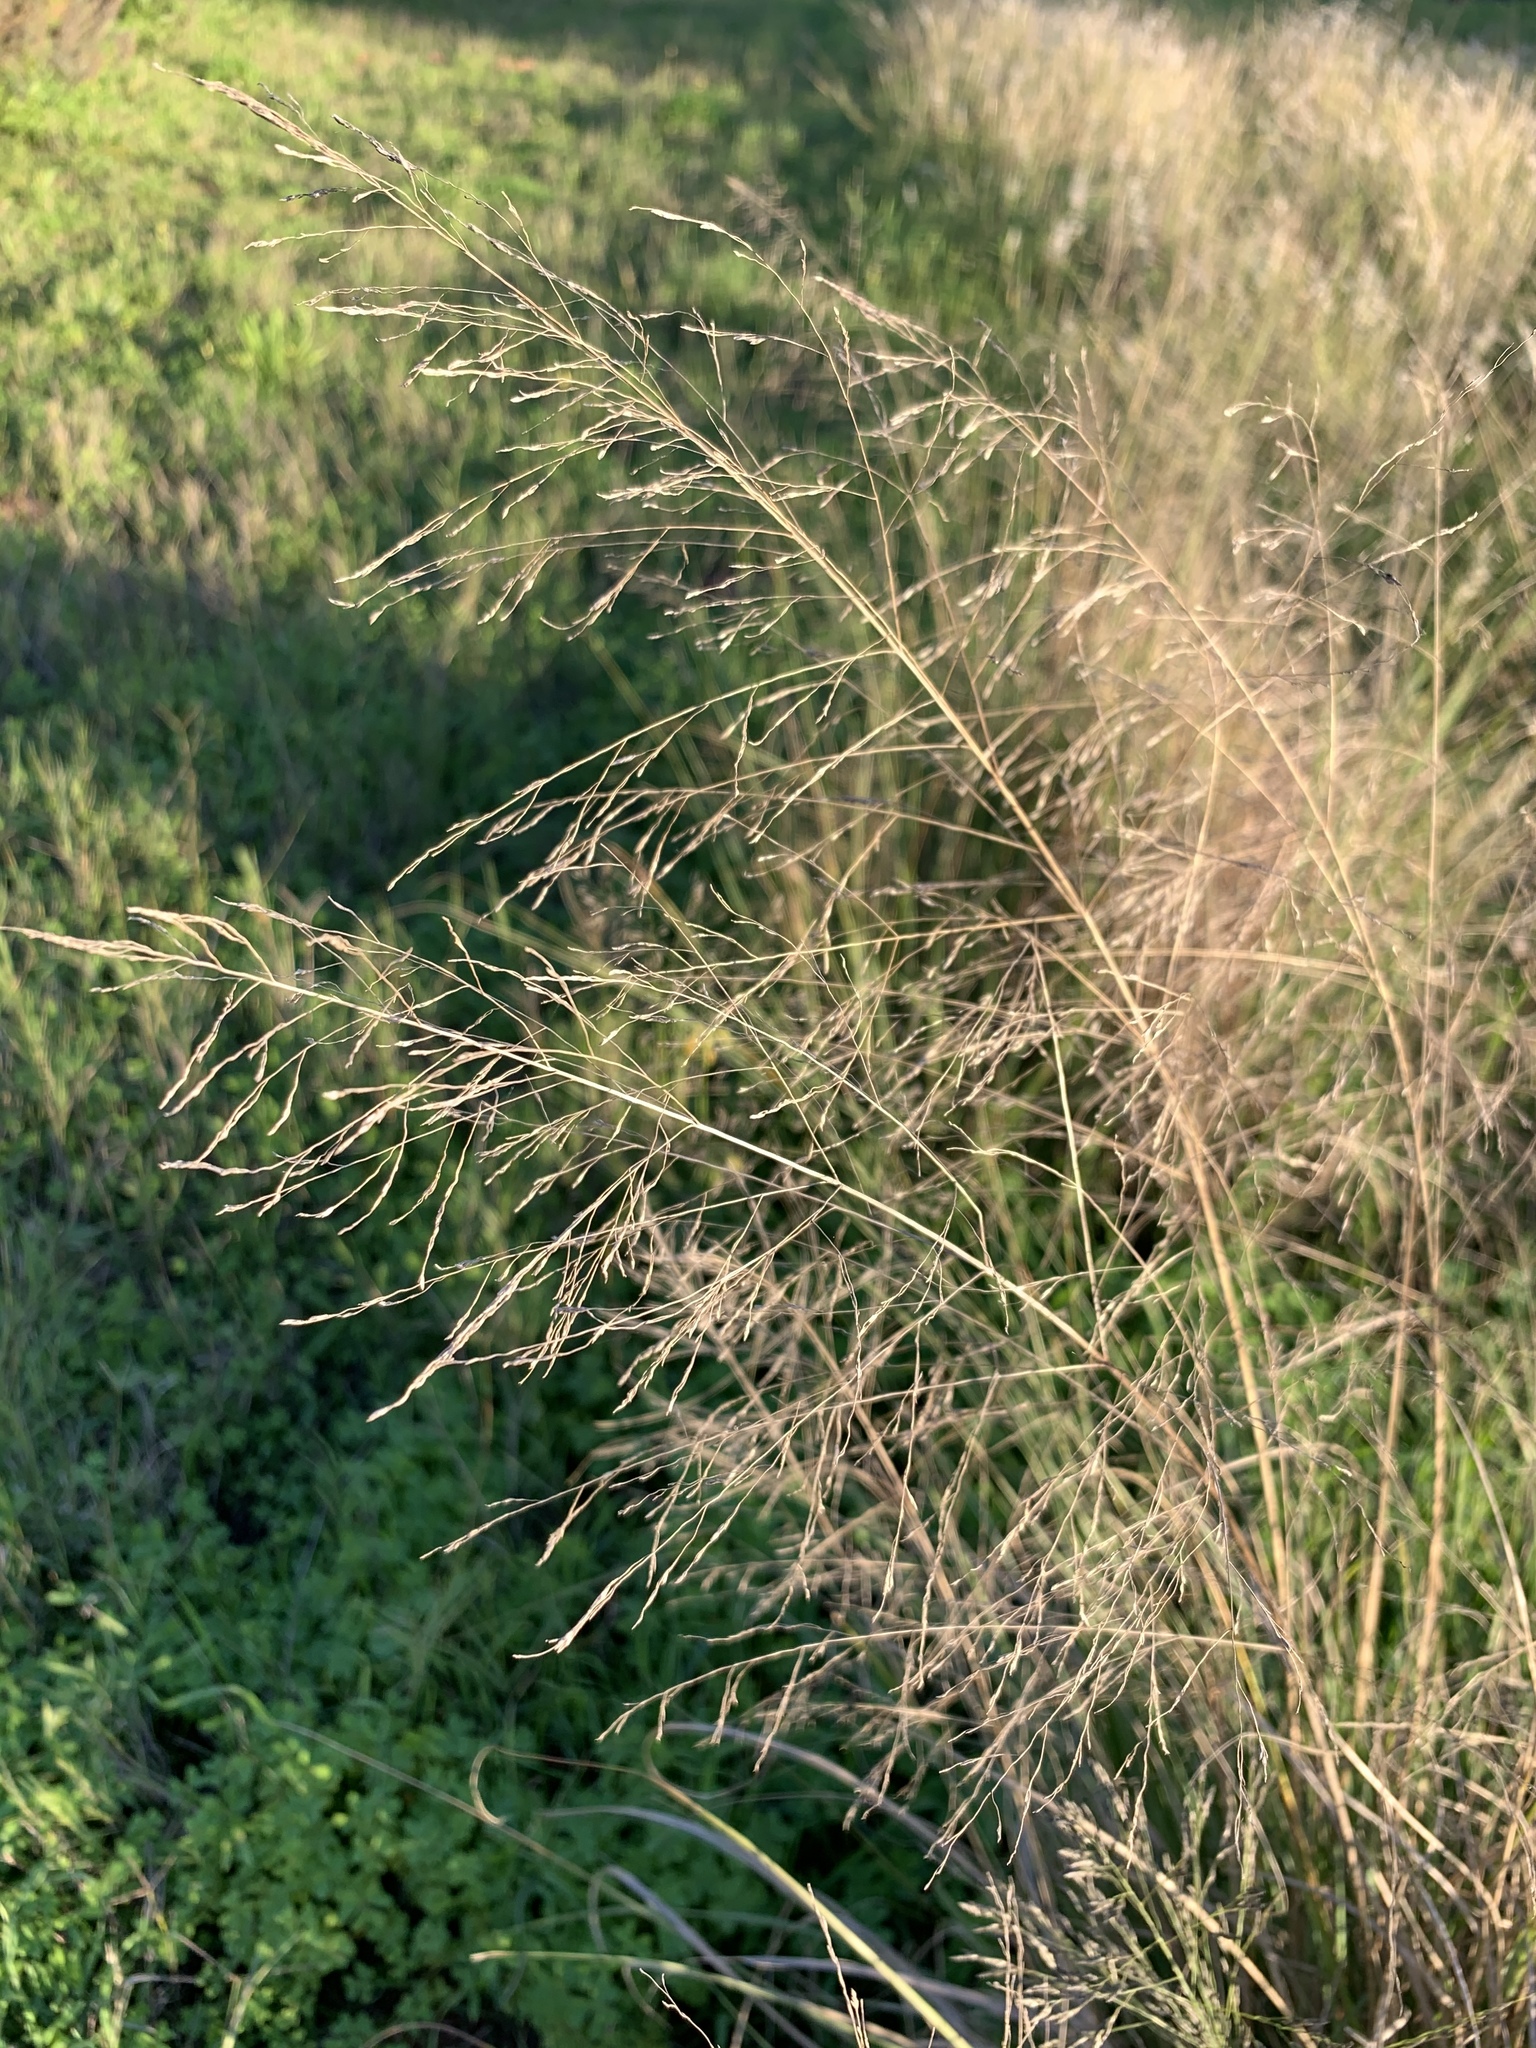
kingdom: Plantae
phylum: Tracheophyta
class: Liliopsida
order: Poales
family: Poaceae
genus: Eragrostis
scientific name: Eragrostis curvula
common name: African love-grass
